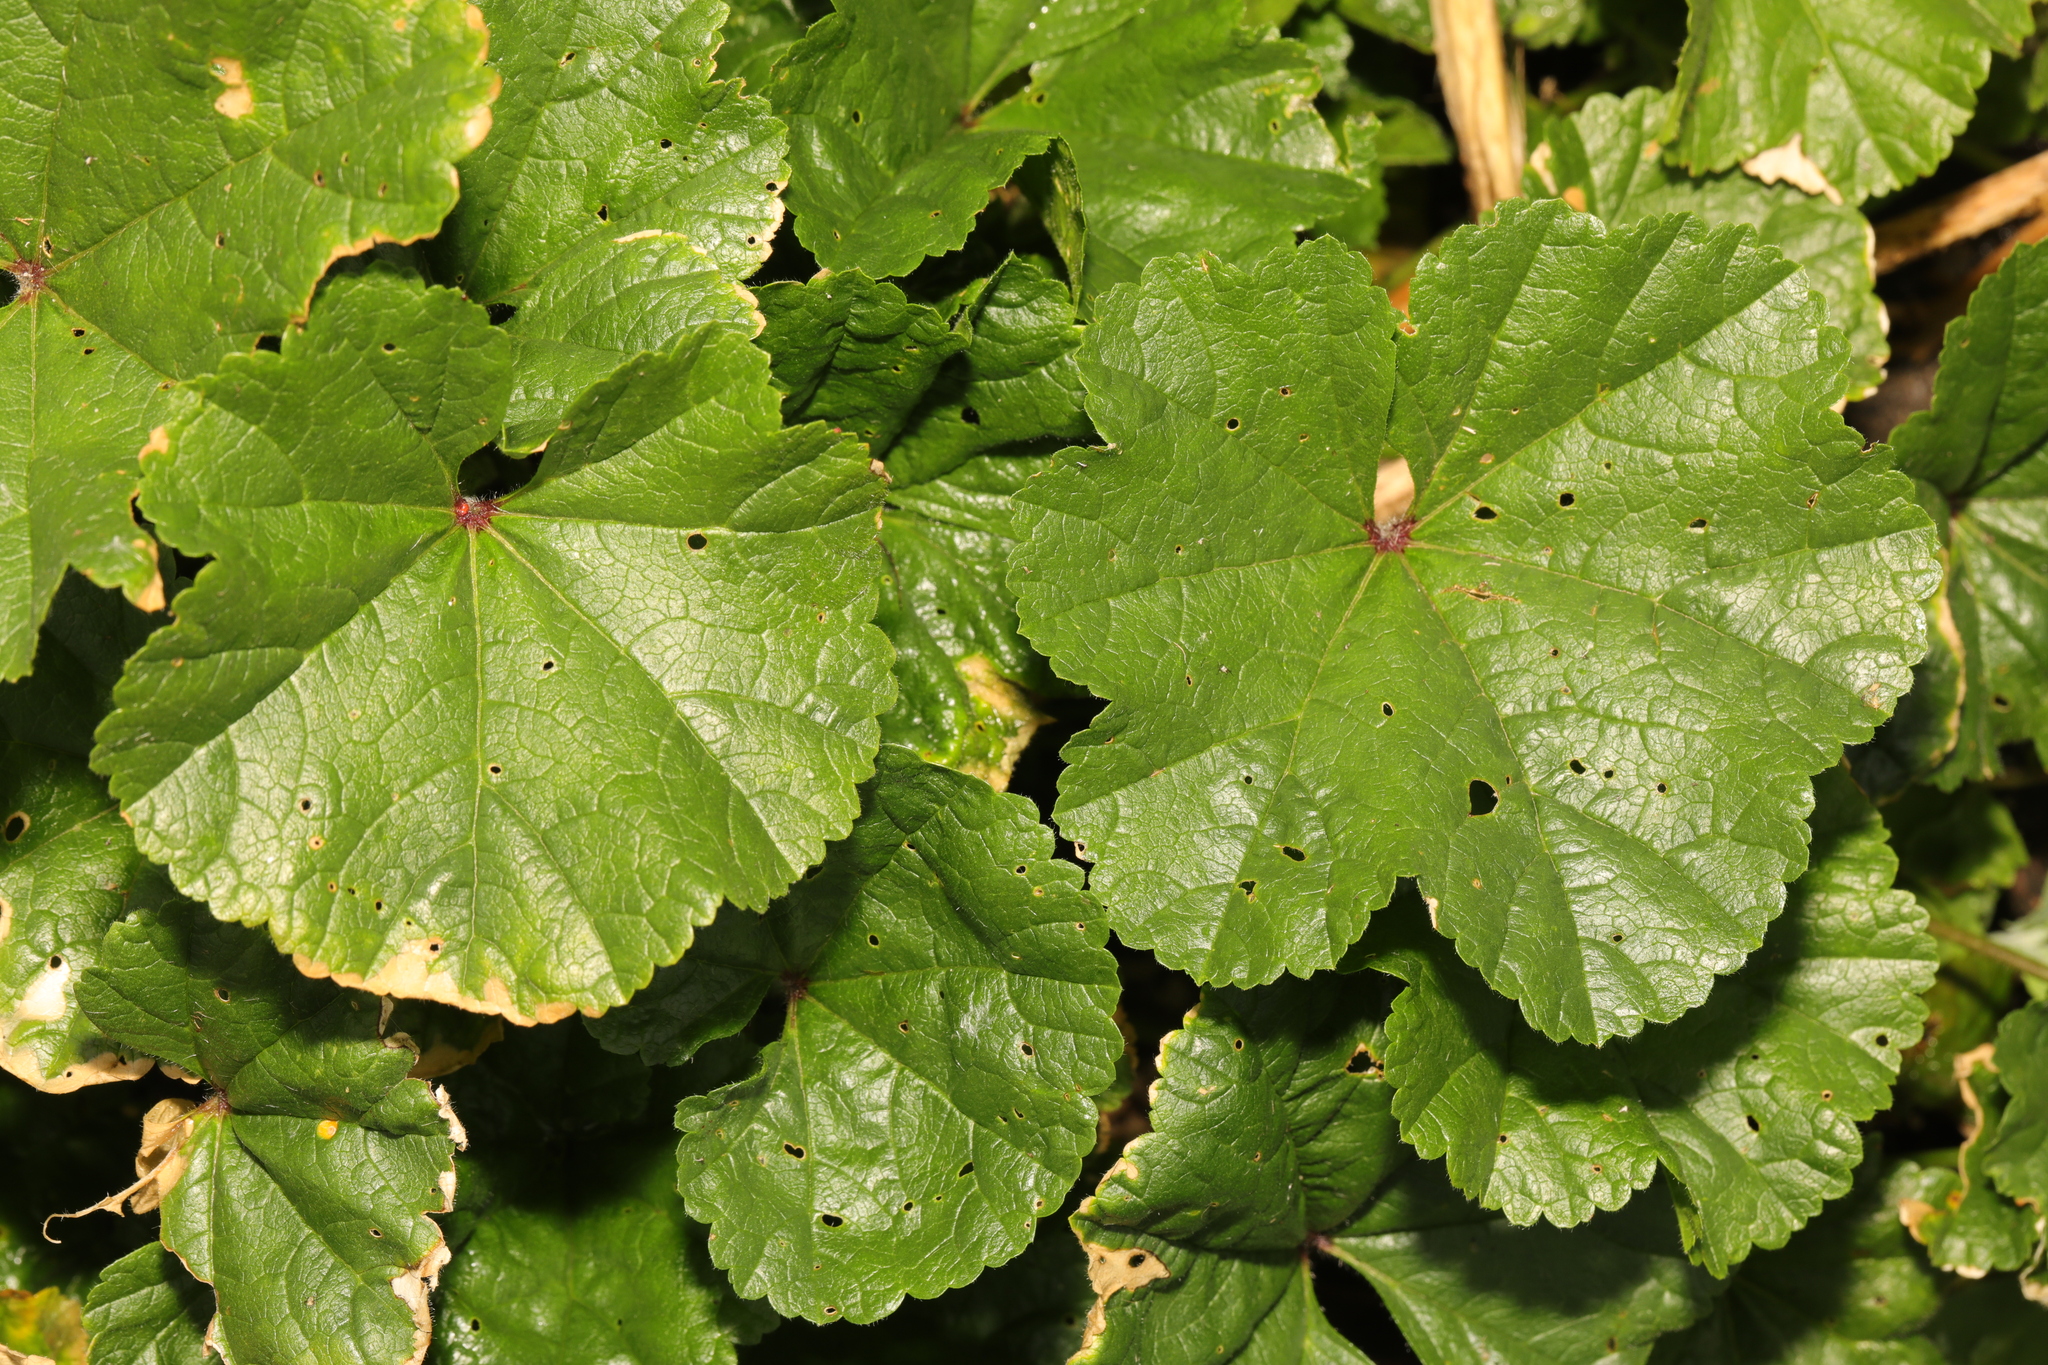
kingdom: Plantae
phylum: Tracheophyta
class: Magnoliopsida
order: Malvales
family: Malvaceae
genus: Malva
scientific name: Malva sylvestris
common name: Common mallow
